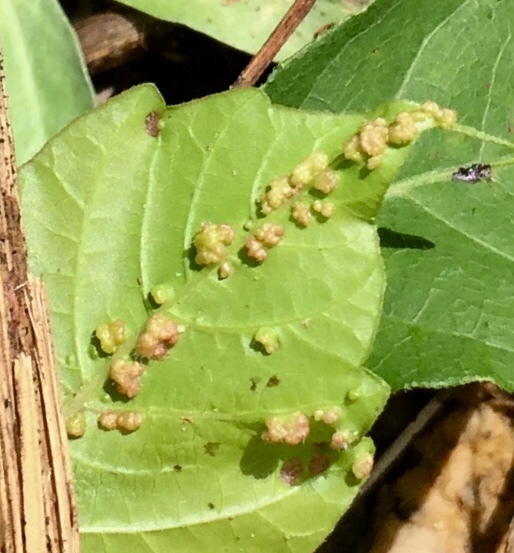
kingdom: Animalia
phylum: Arthropoda
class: Arachnida
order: Trombidiformes
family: Eriophyidae
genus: Aculops
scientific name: Aculops
